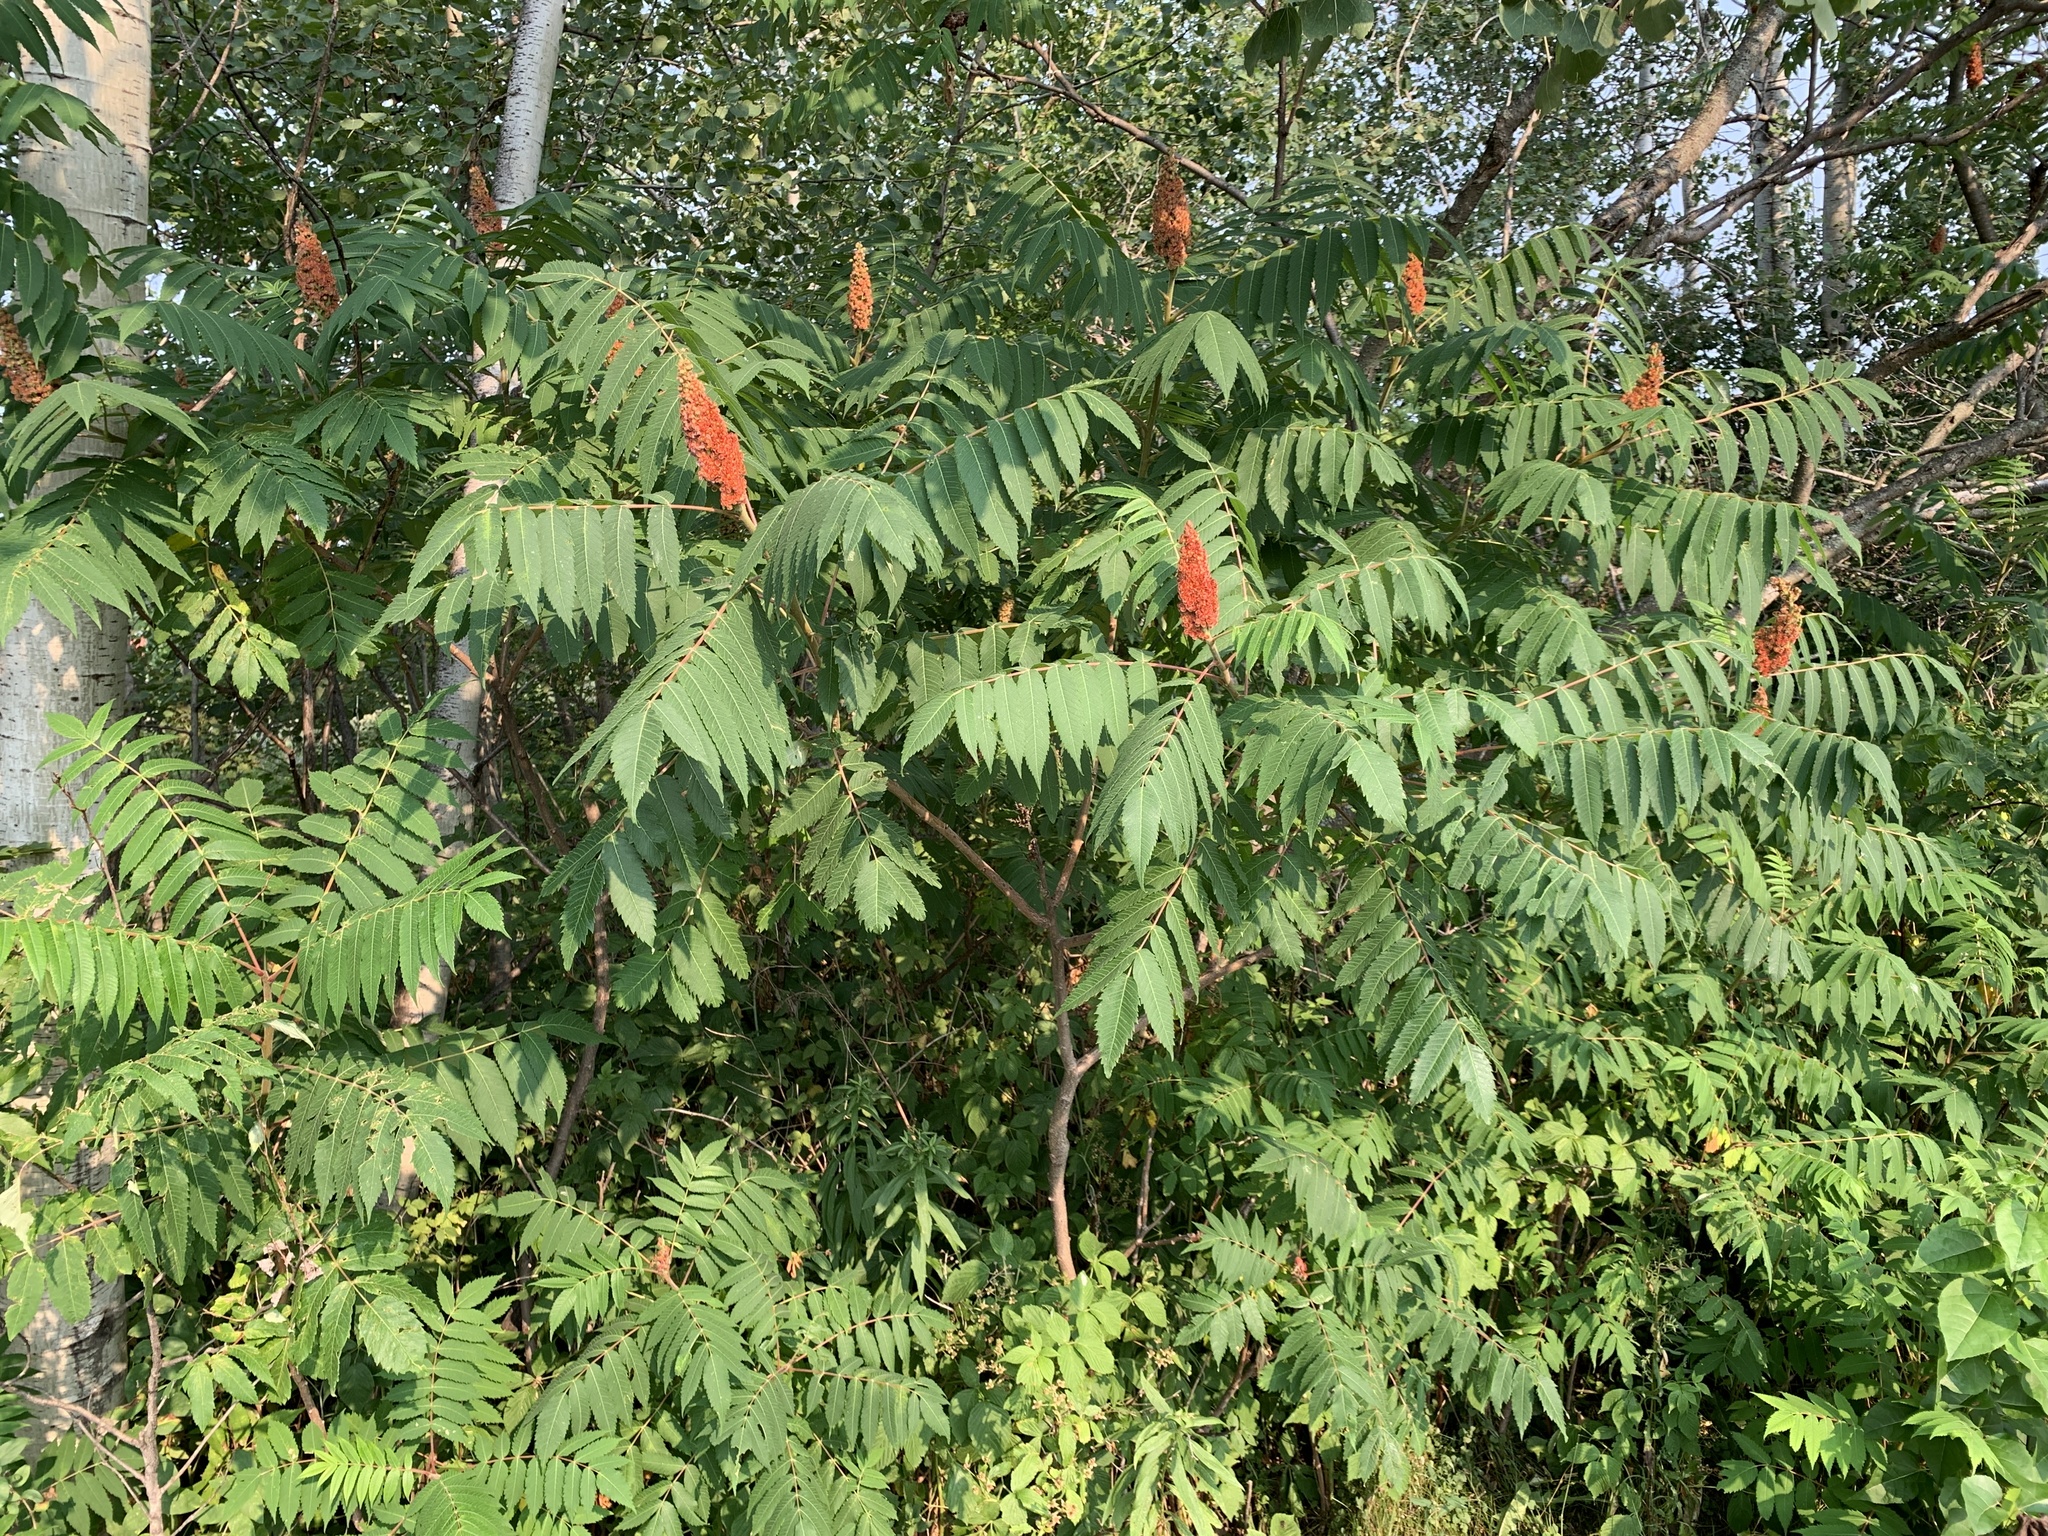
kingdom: Plantae
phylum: Tracheophyta
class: Magnoliopsida
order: Sapindales
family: Anacardiaceae
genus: Rhus
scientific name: Rhus typhina
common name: Staghorn sumac
